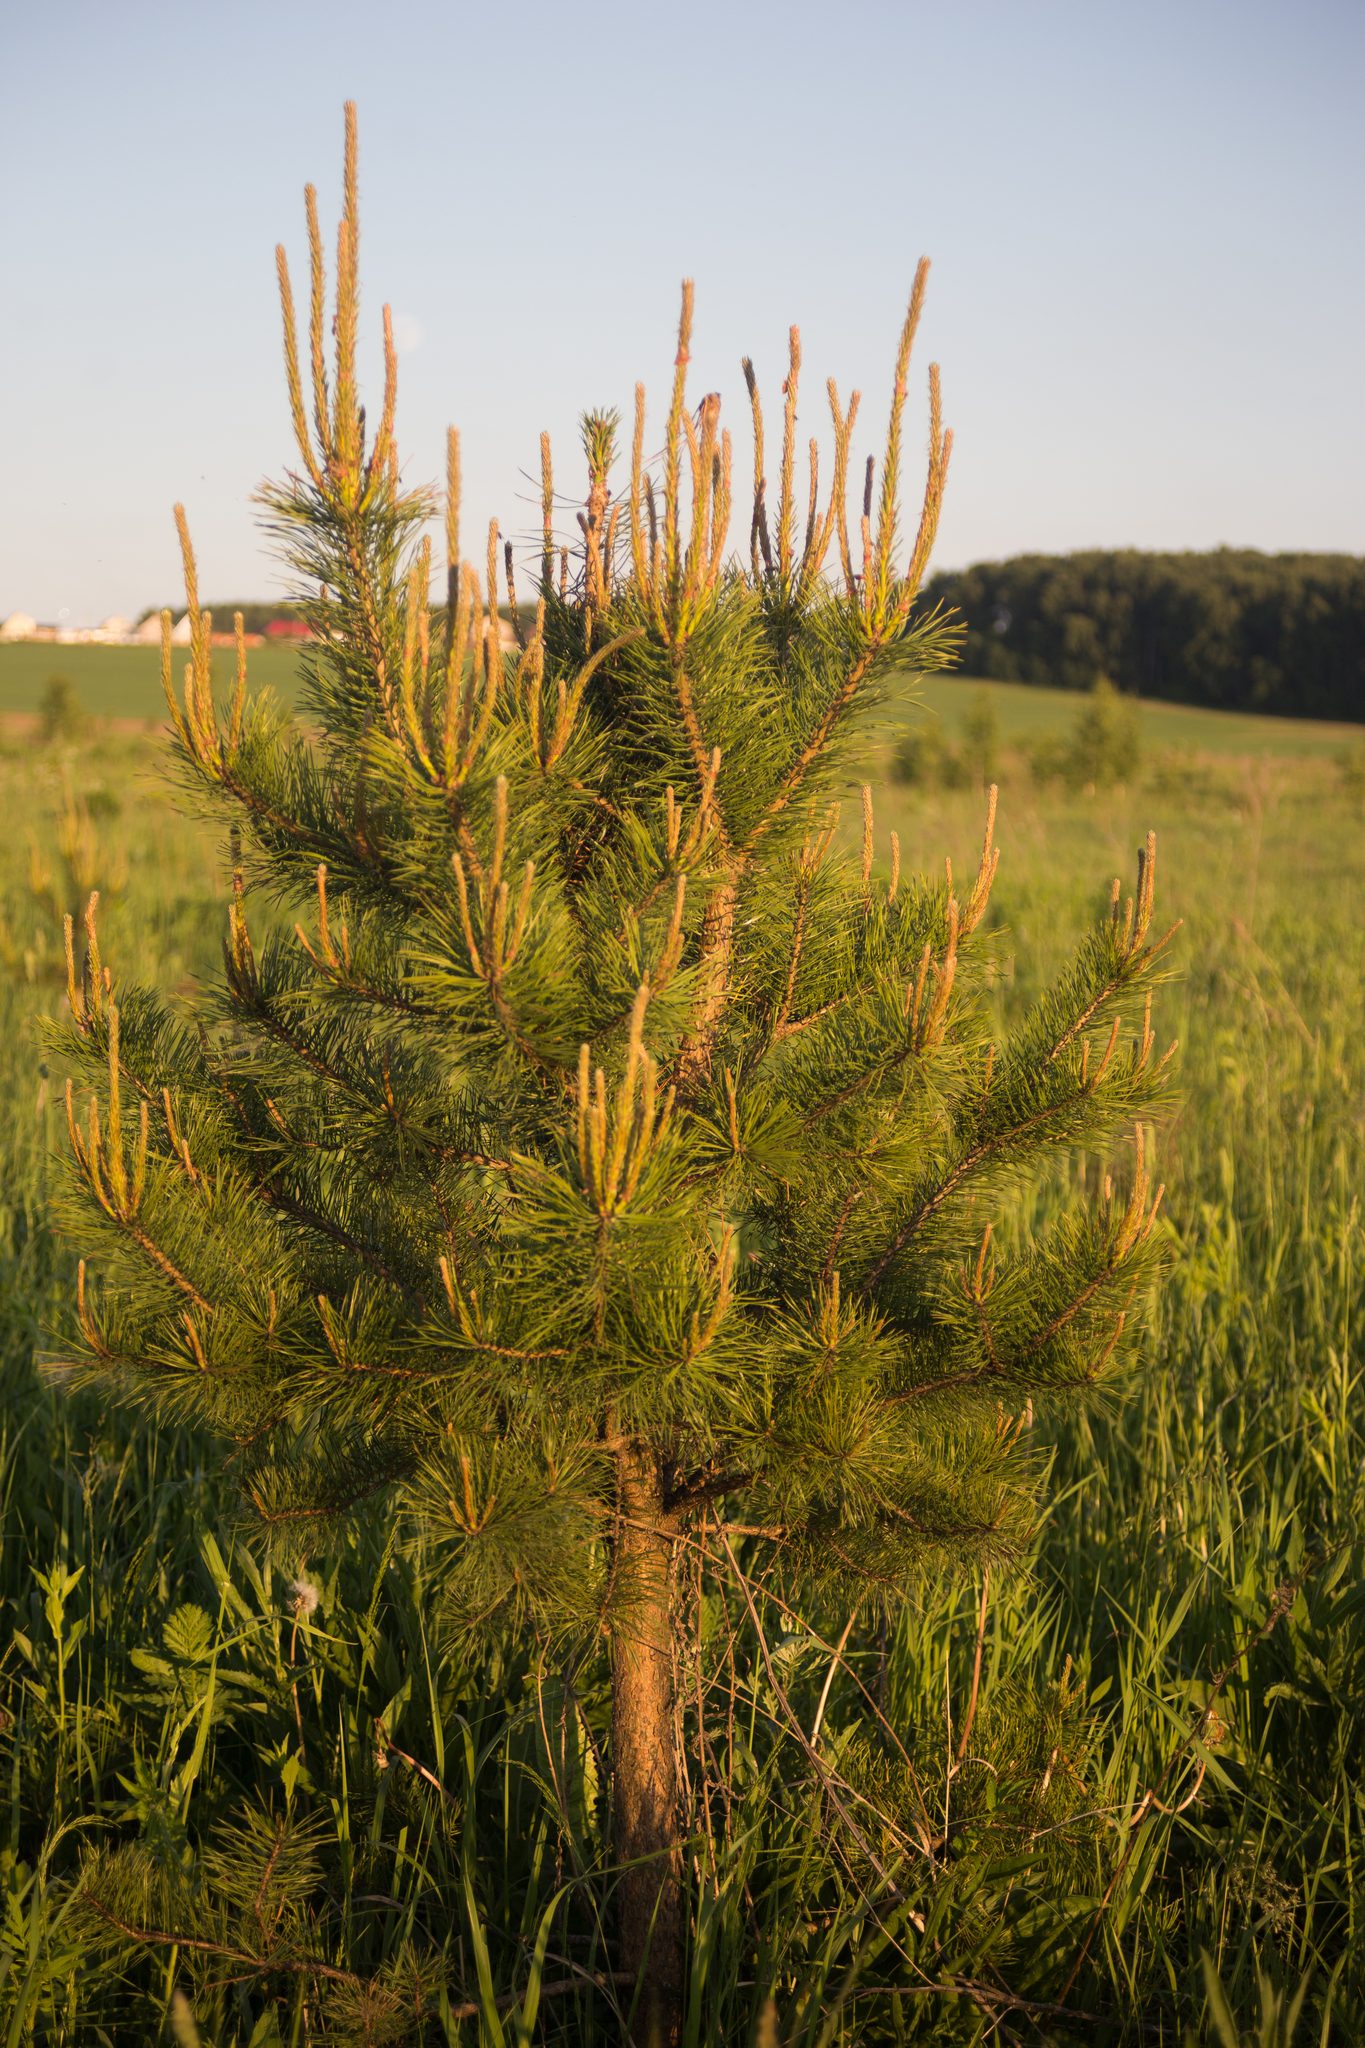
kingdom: Plantae
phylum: Tracheophyta
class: Pinopsida
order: Pinales
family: Pinaceae
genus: Pinus
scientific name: Pinus sylvestris
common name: Scots pine
